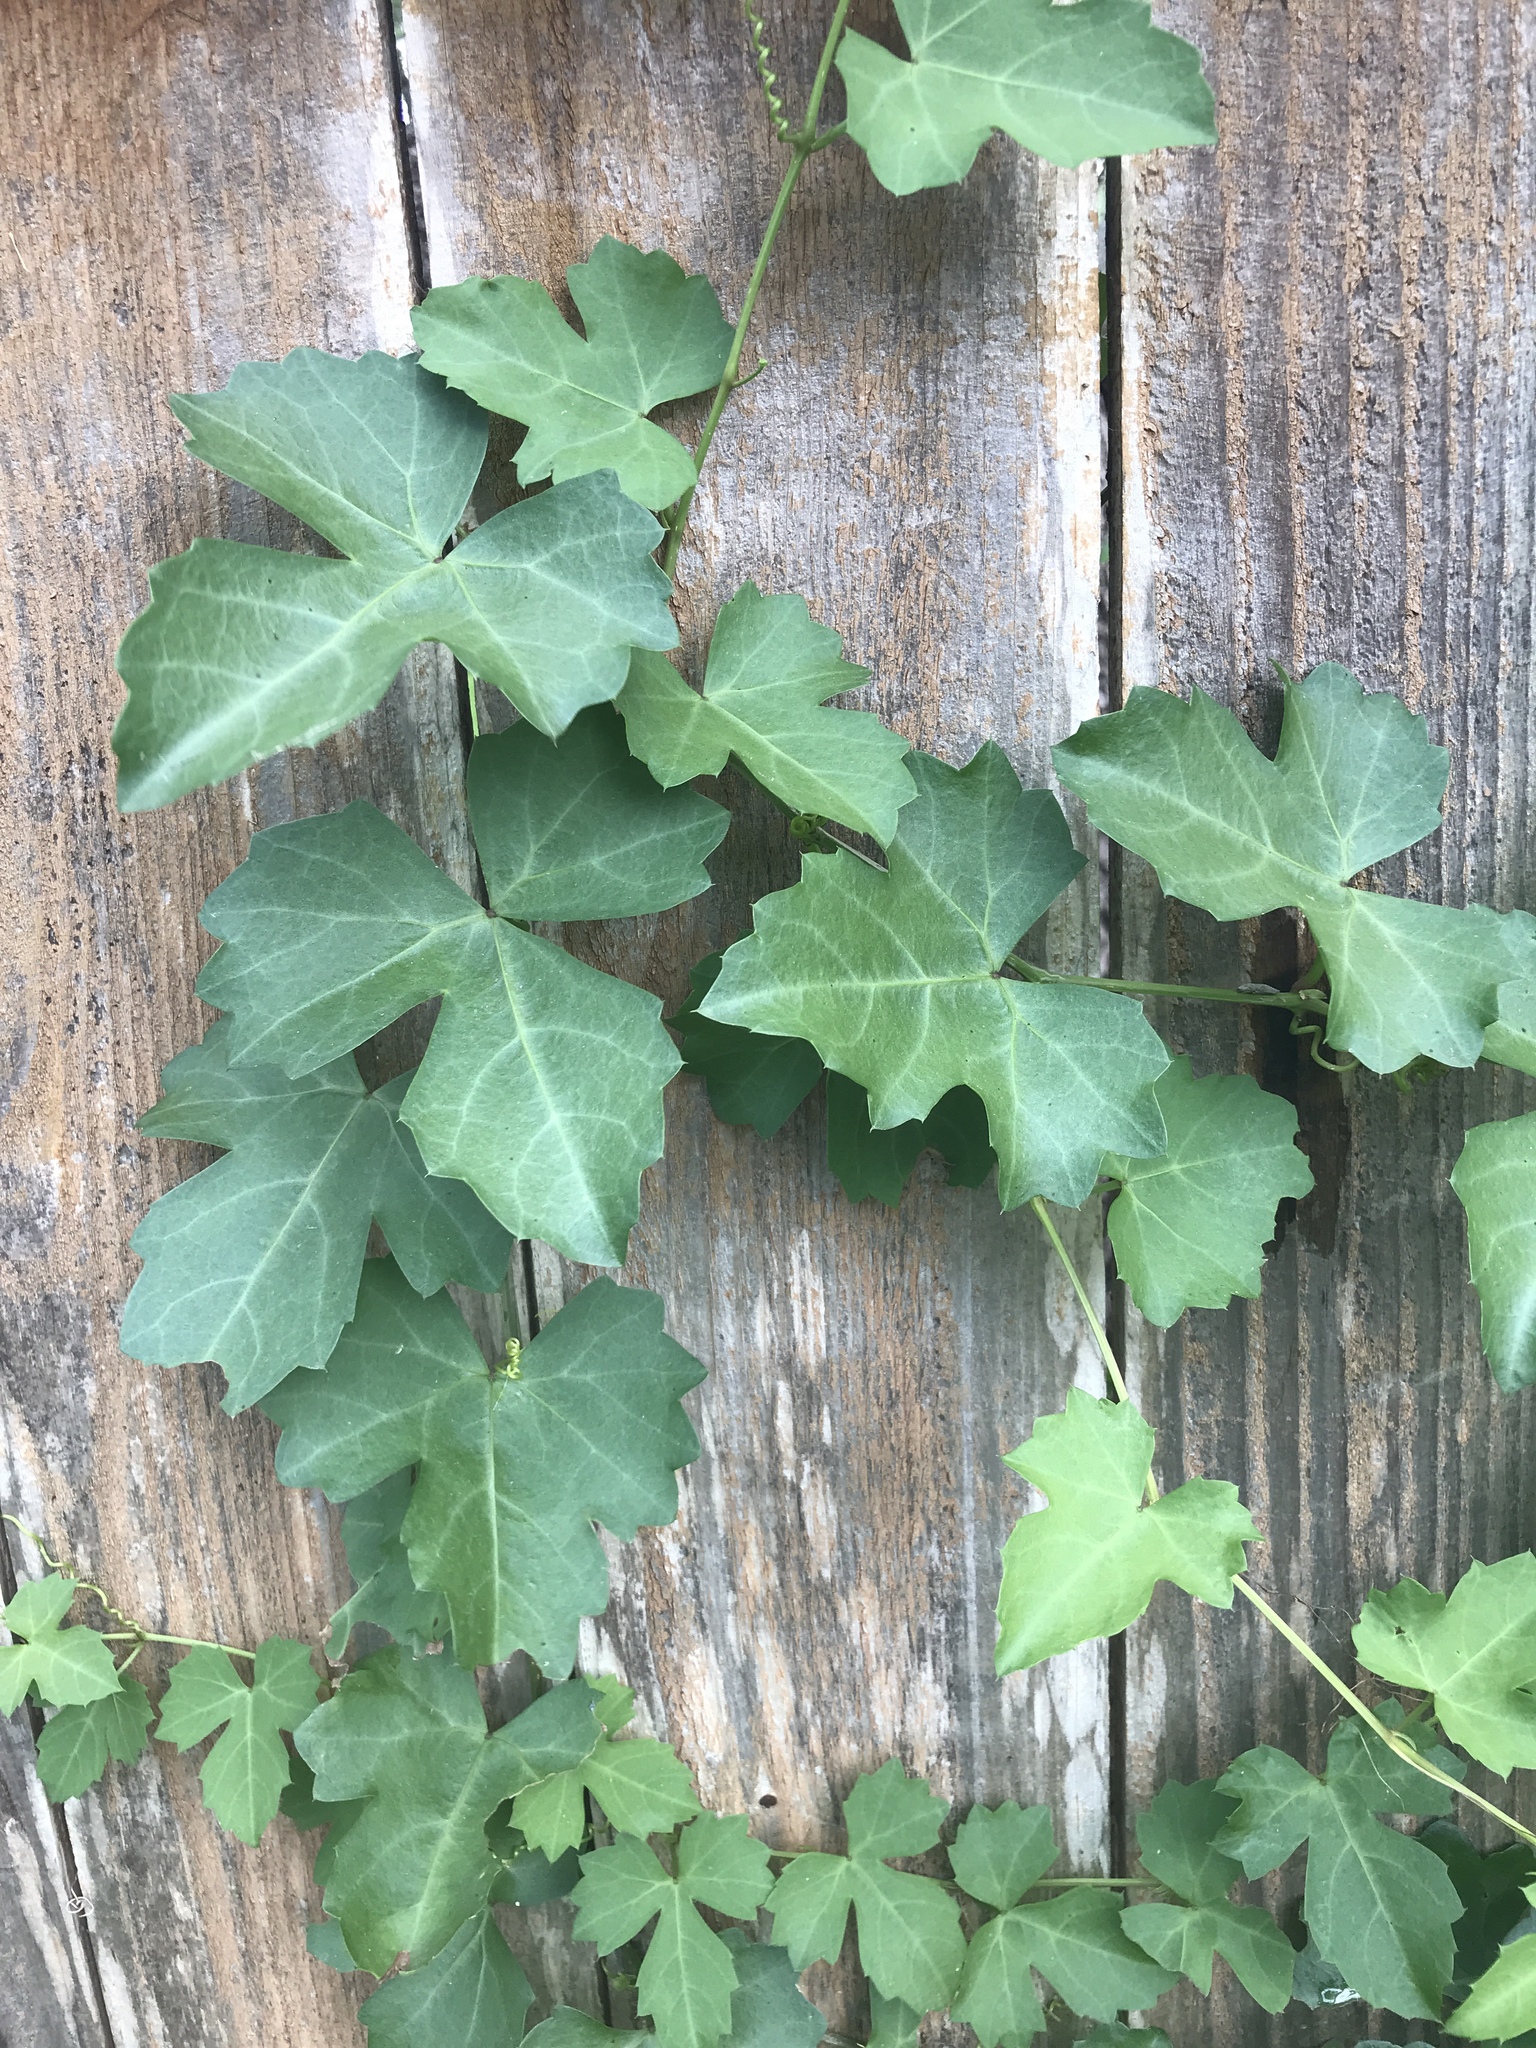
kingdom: Plantae
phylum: Tracheophyta
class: Magnoliopsida
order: Vitales
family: Vitaceae
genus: Cissus
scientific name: Cissus trifoliata
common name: Vine-sorrel
